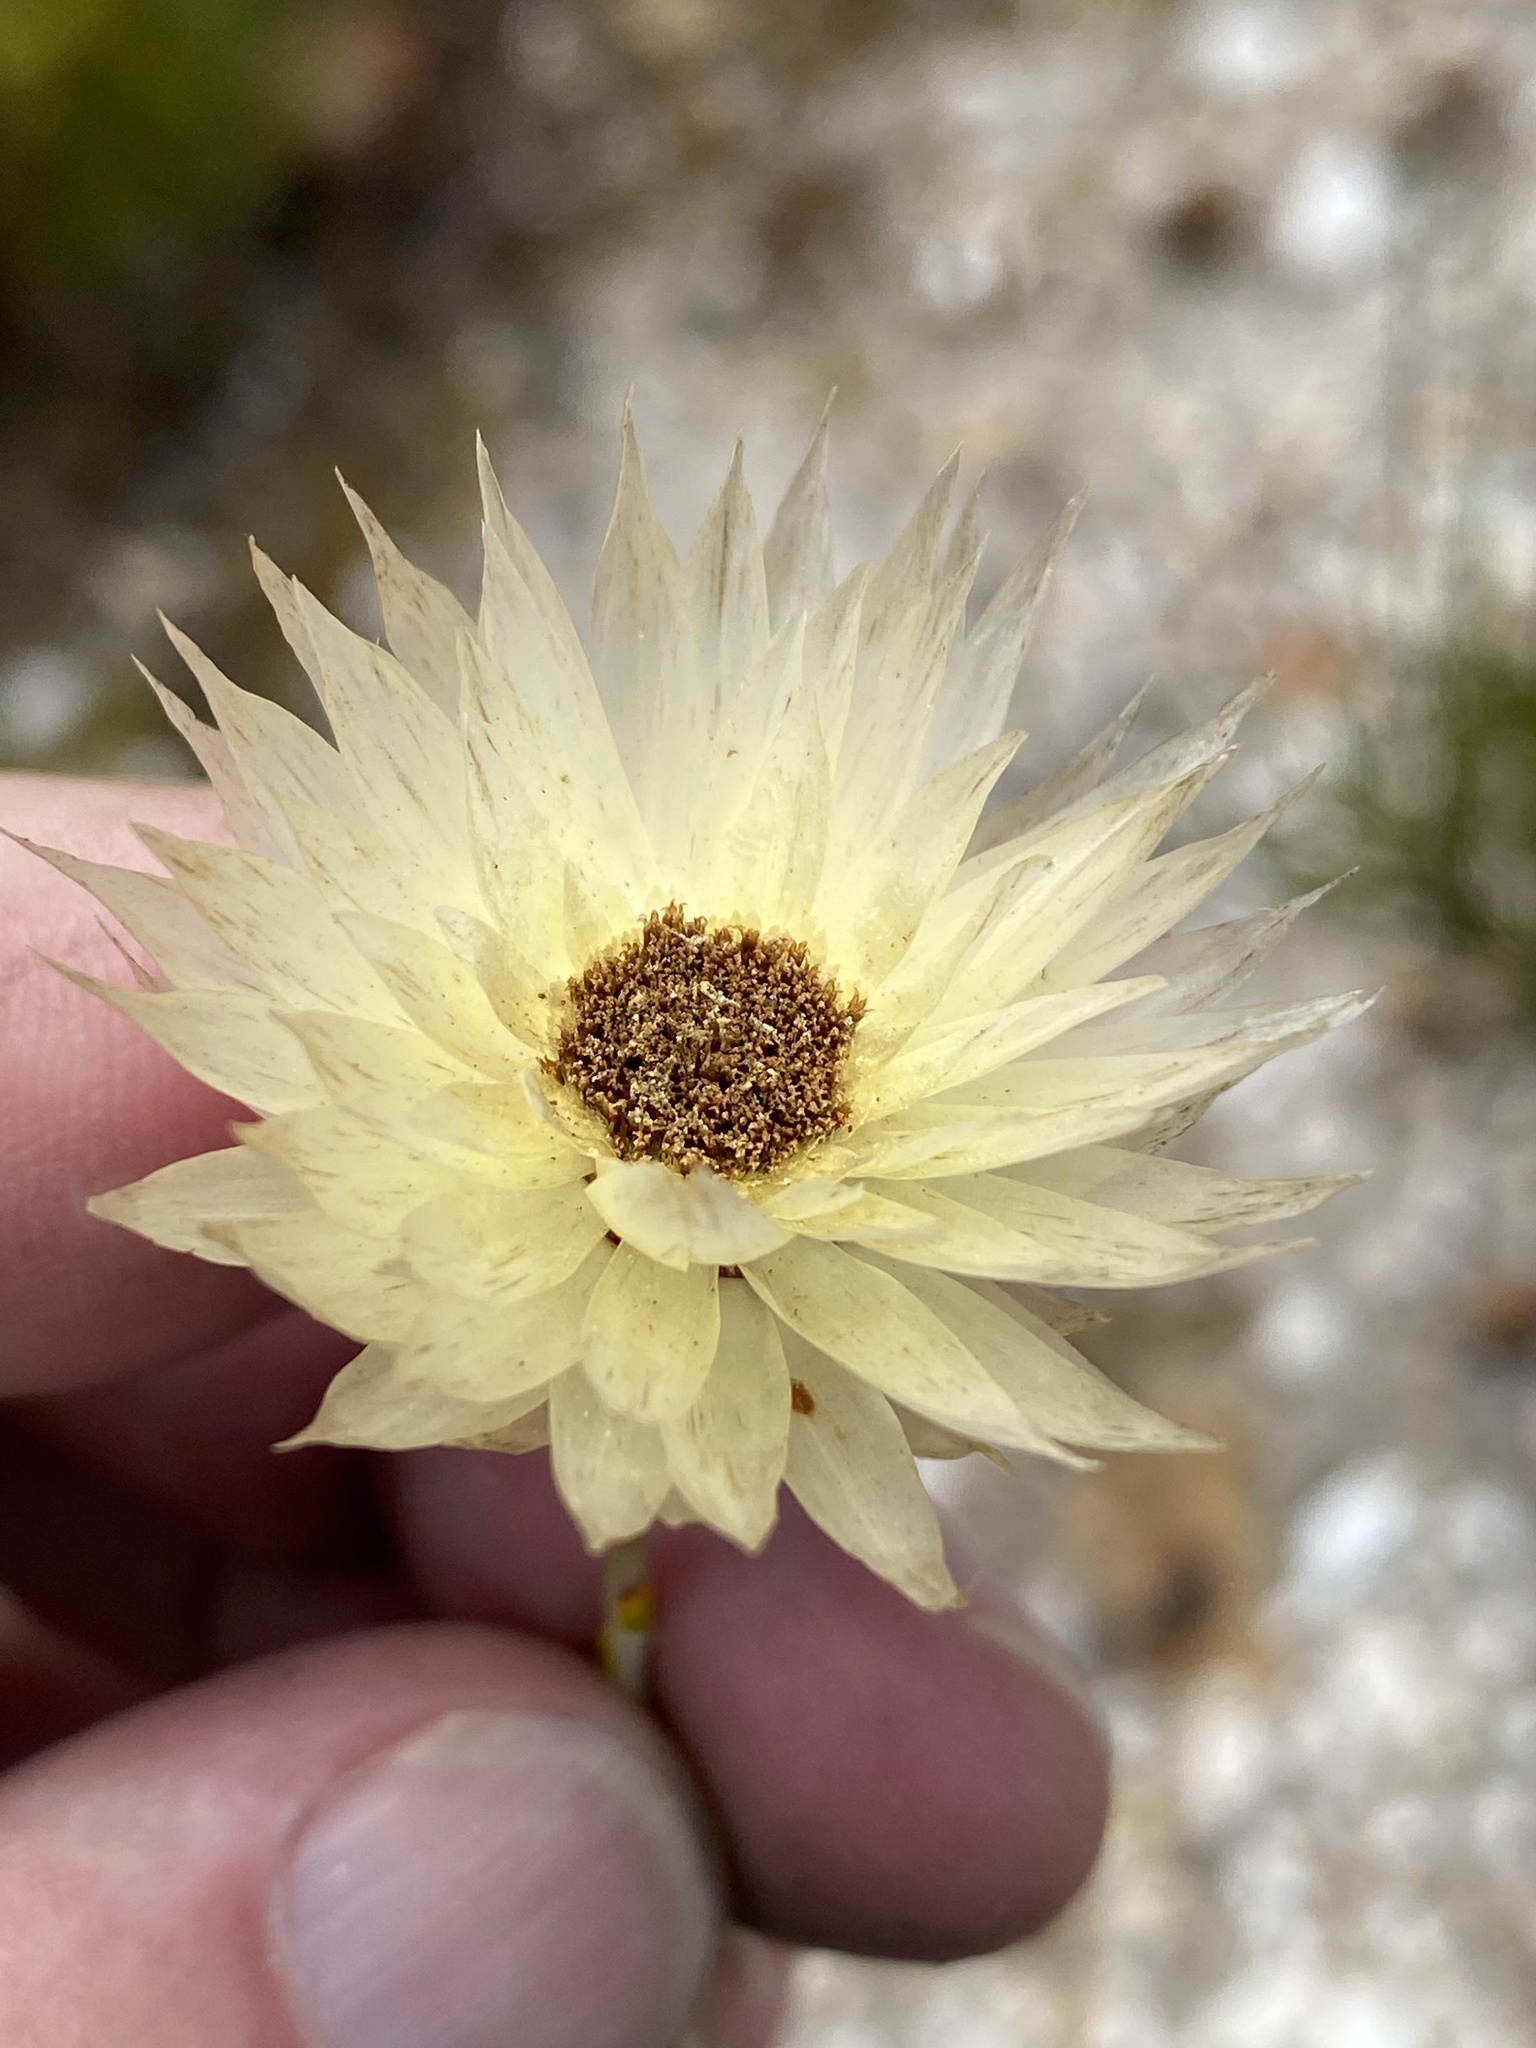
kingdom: Plantae
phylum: Tracheophyta
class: Magnoliopsida
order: Asterales
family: Asteraceae
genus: Edmondia
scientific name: Edmondia sesamoides
